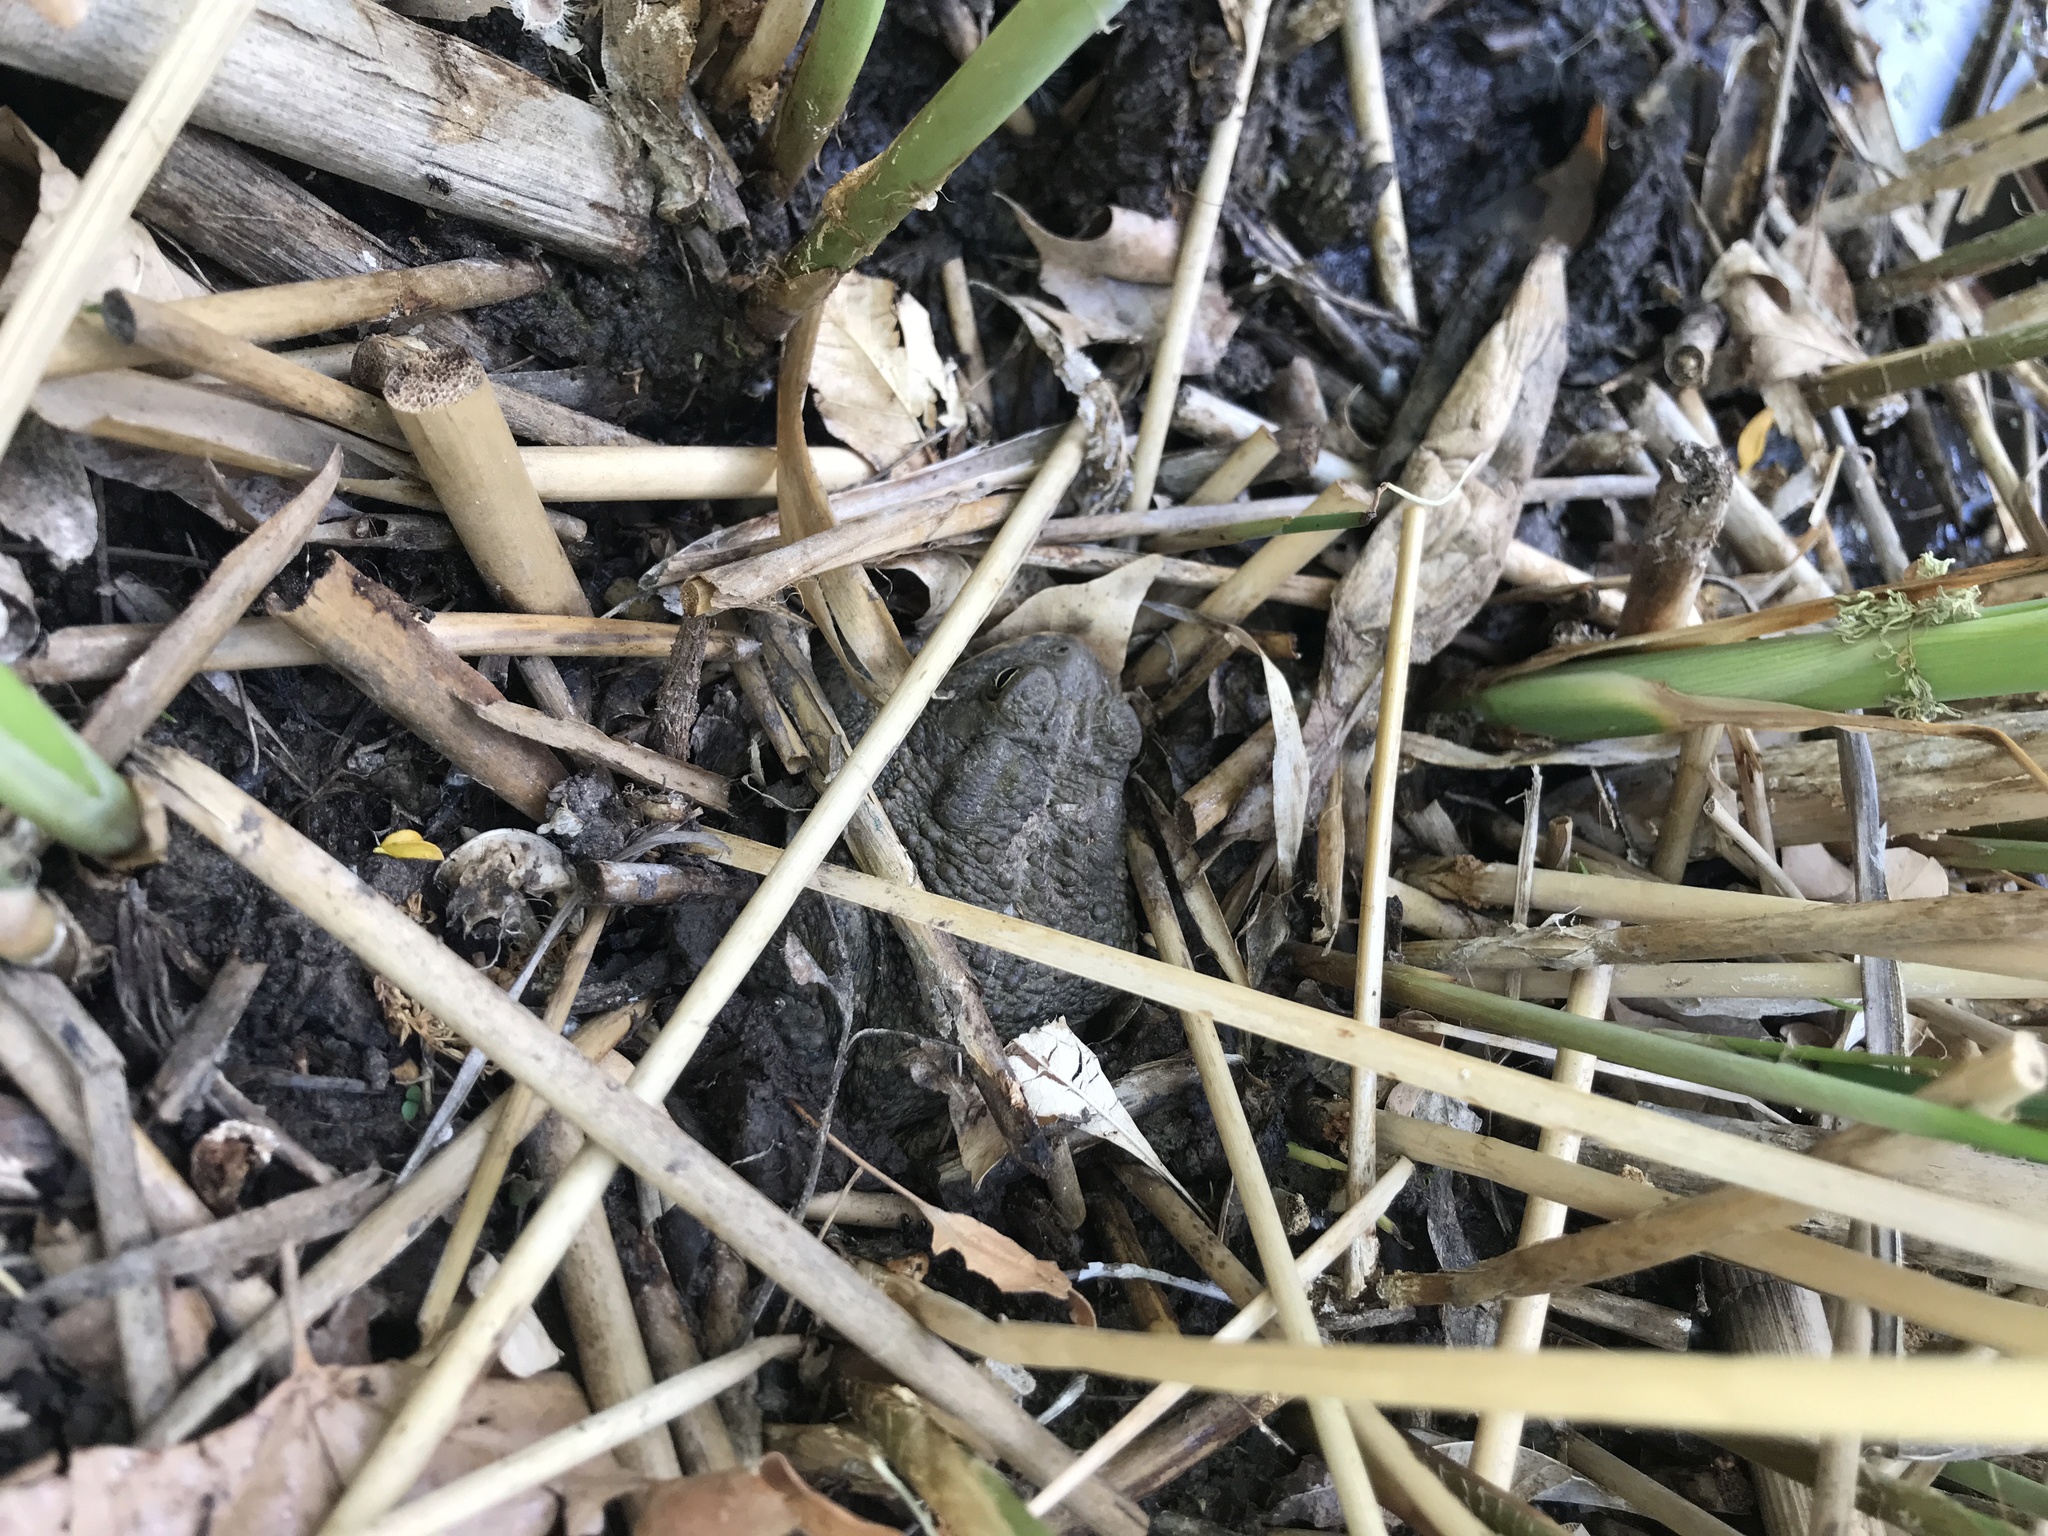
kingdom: Animalia
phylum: Chordata
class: Amphibia
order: Anura
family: Bufonidae
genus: Anaxyrus
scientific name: Anaxyrus woodhousii
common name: Woodhouse's toad
